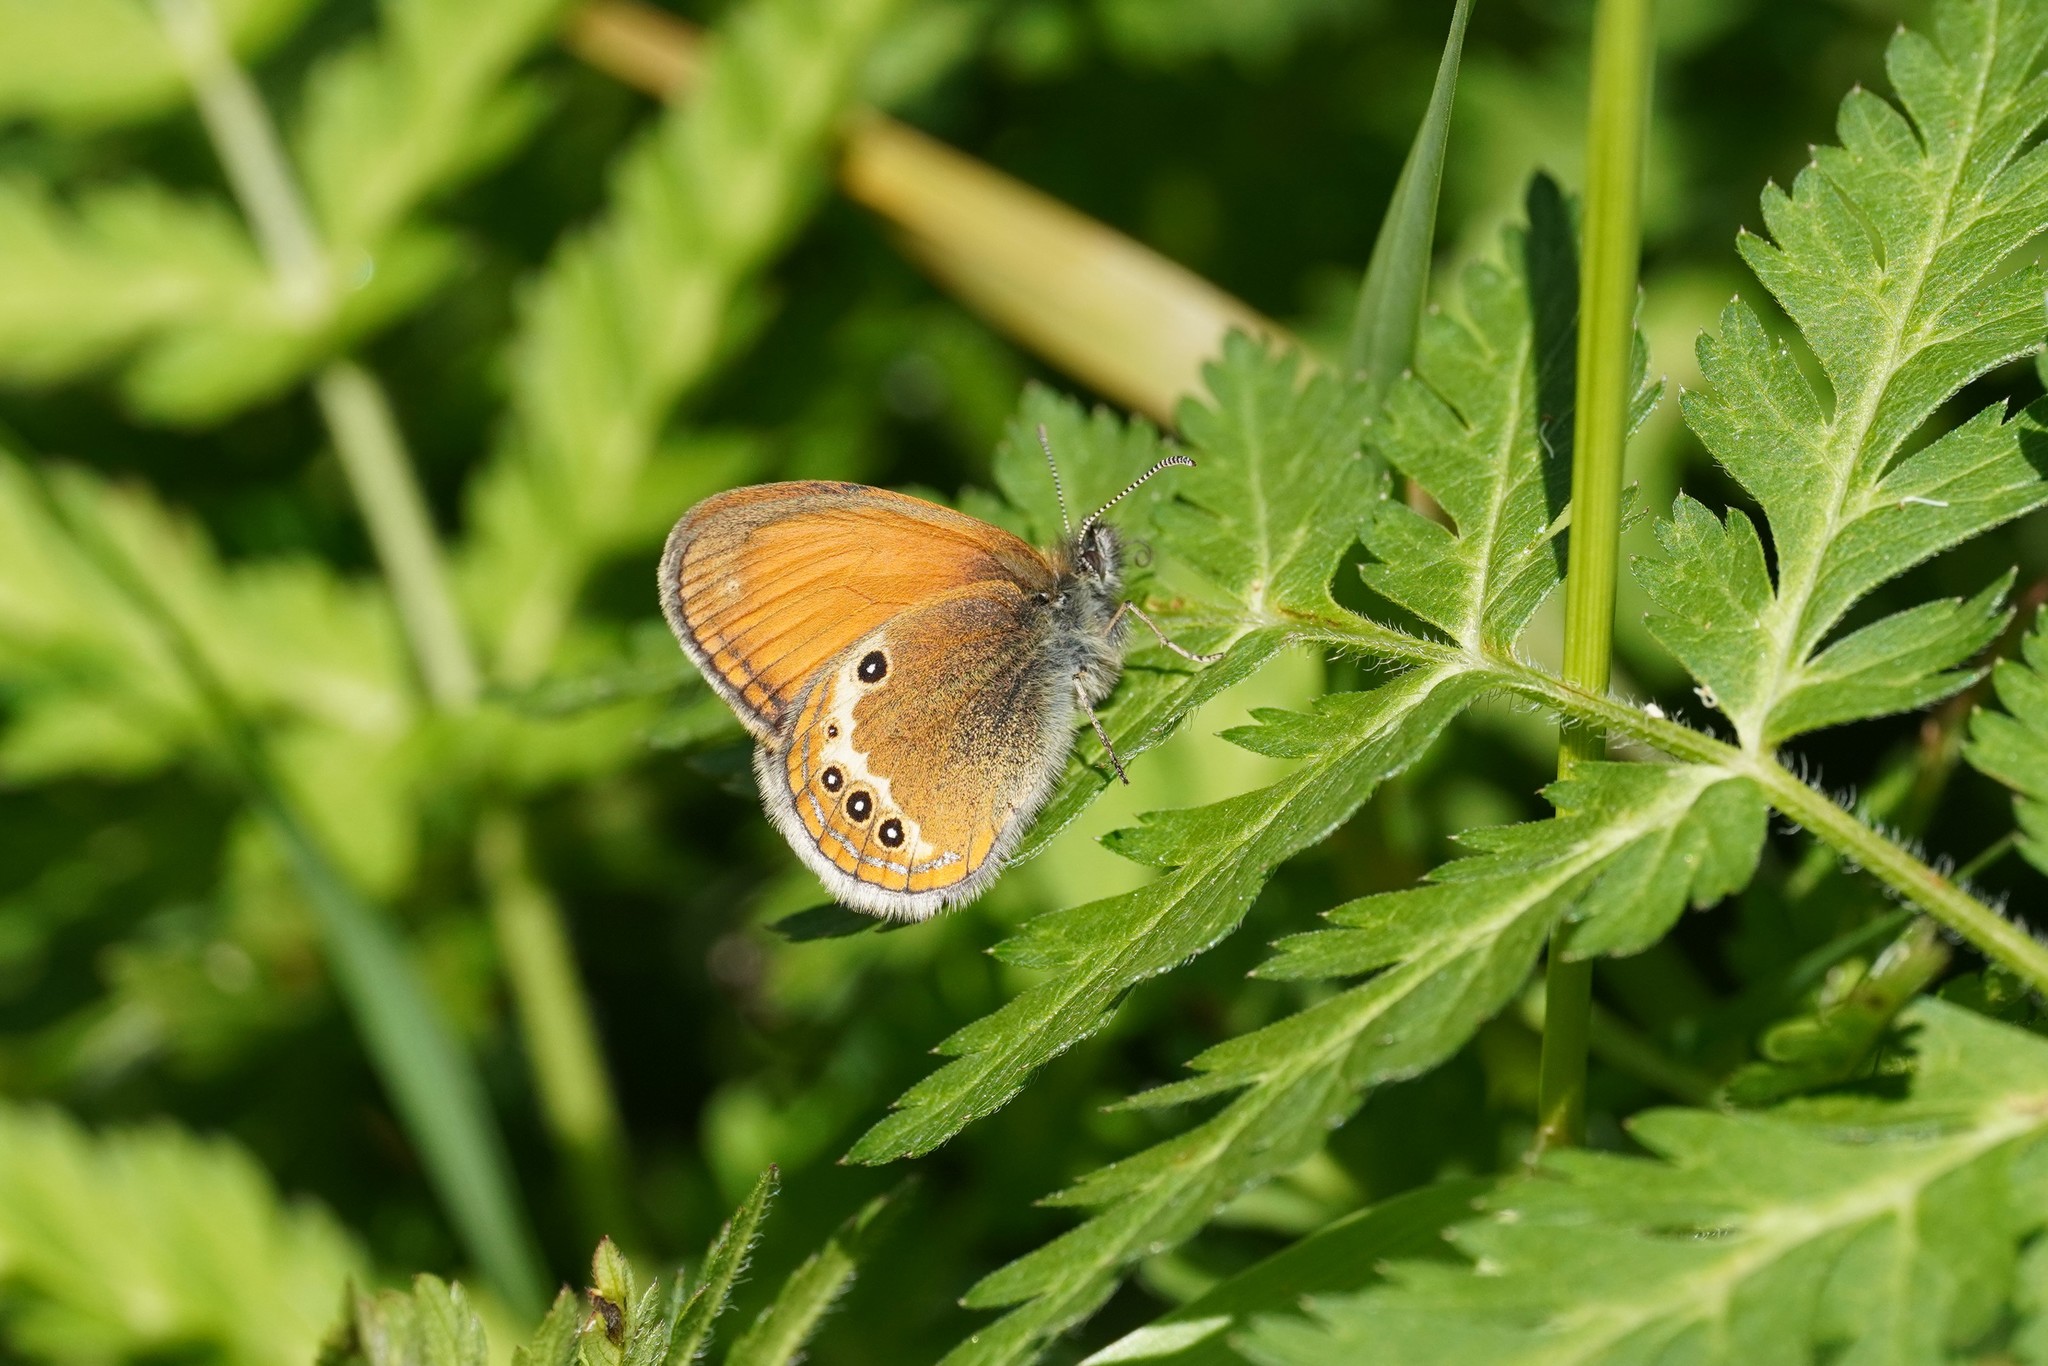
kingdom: Animalia
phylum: Arthropoda
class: Insecta
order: Lepidoptera
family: Nymphalidae
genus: Coenonympha
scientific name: Coenonympha arcania
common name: Pearly heath
